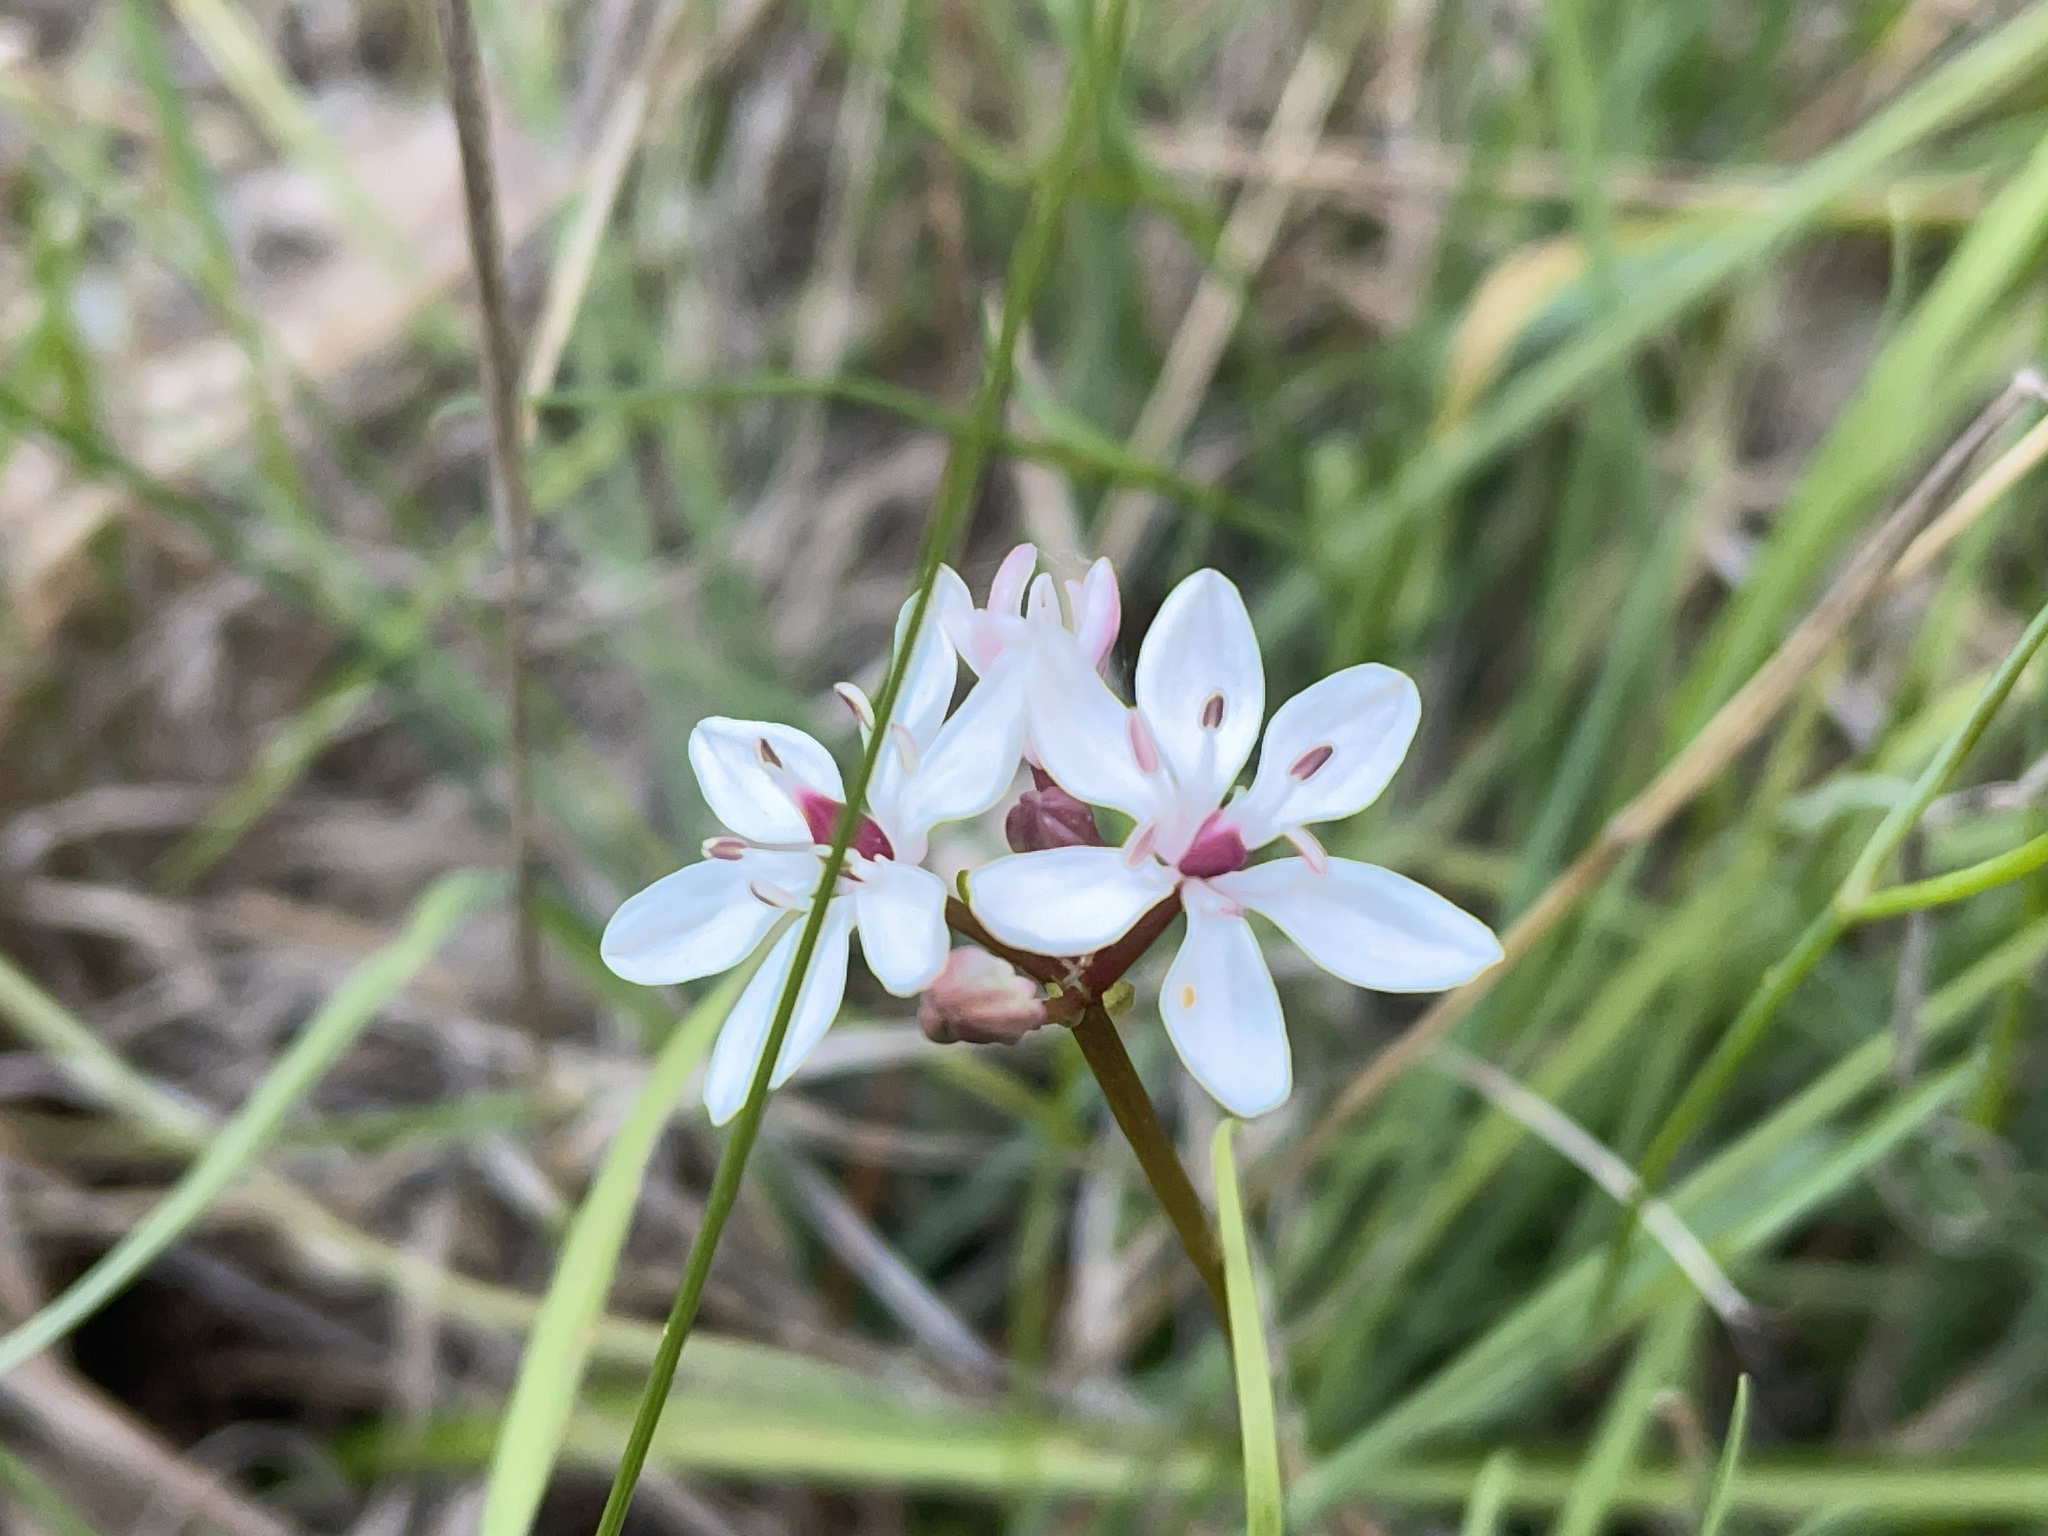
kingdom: Plantae
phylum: Tracheophyta
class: Liliopsida
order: Liliales
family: Colchicaceae
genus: Burchardia
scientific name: Burchardia umbellata
